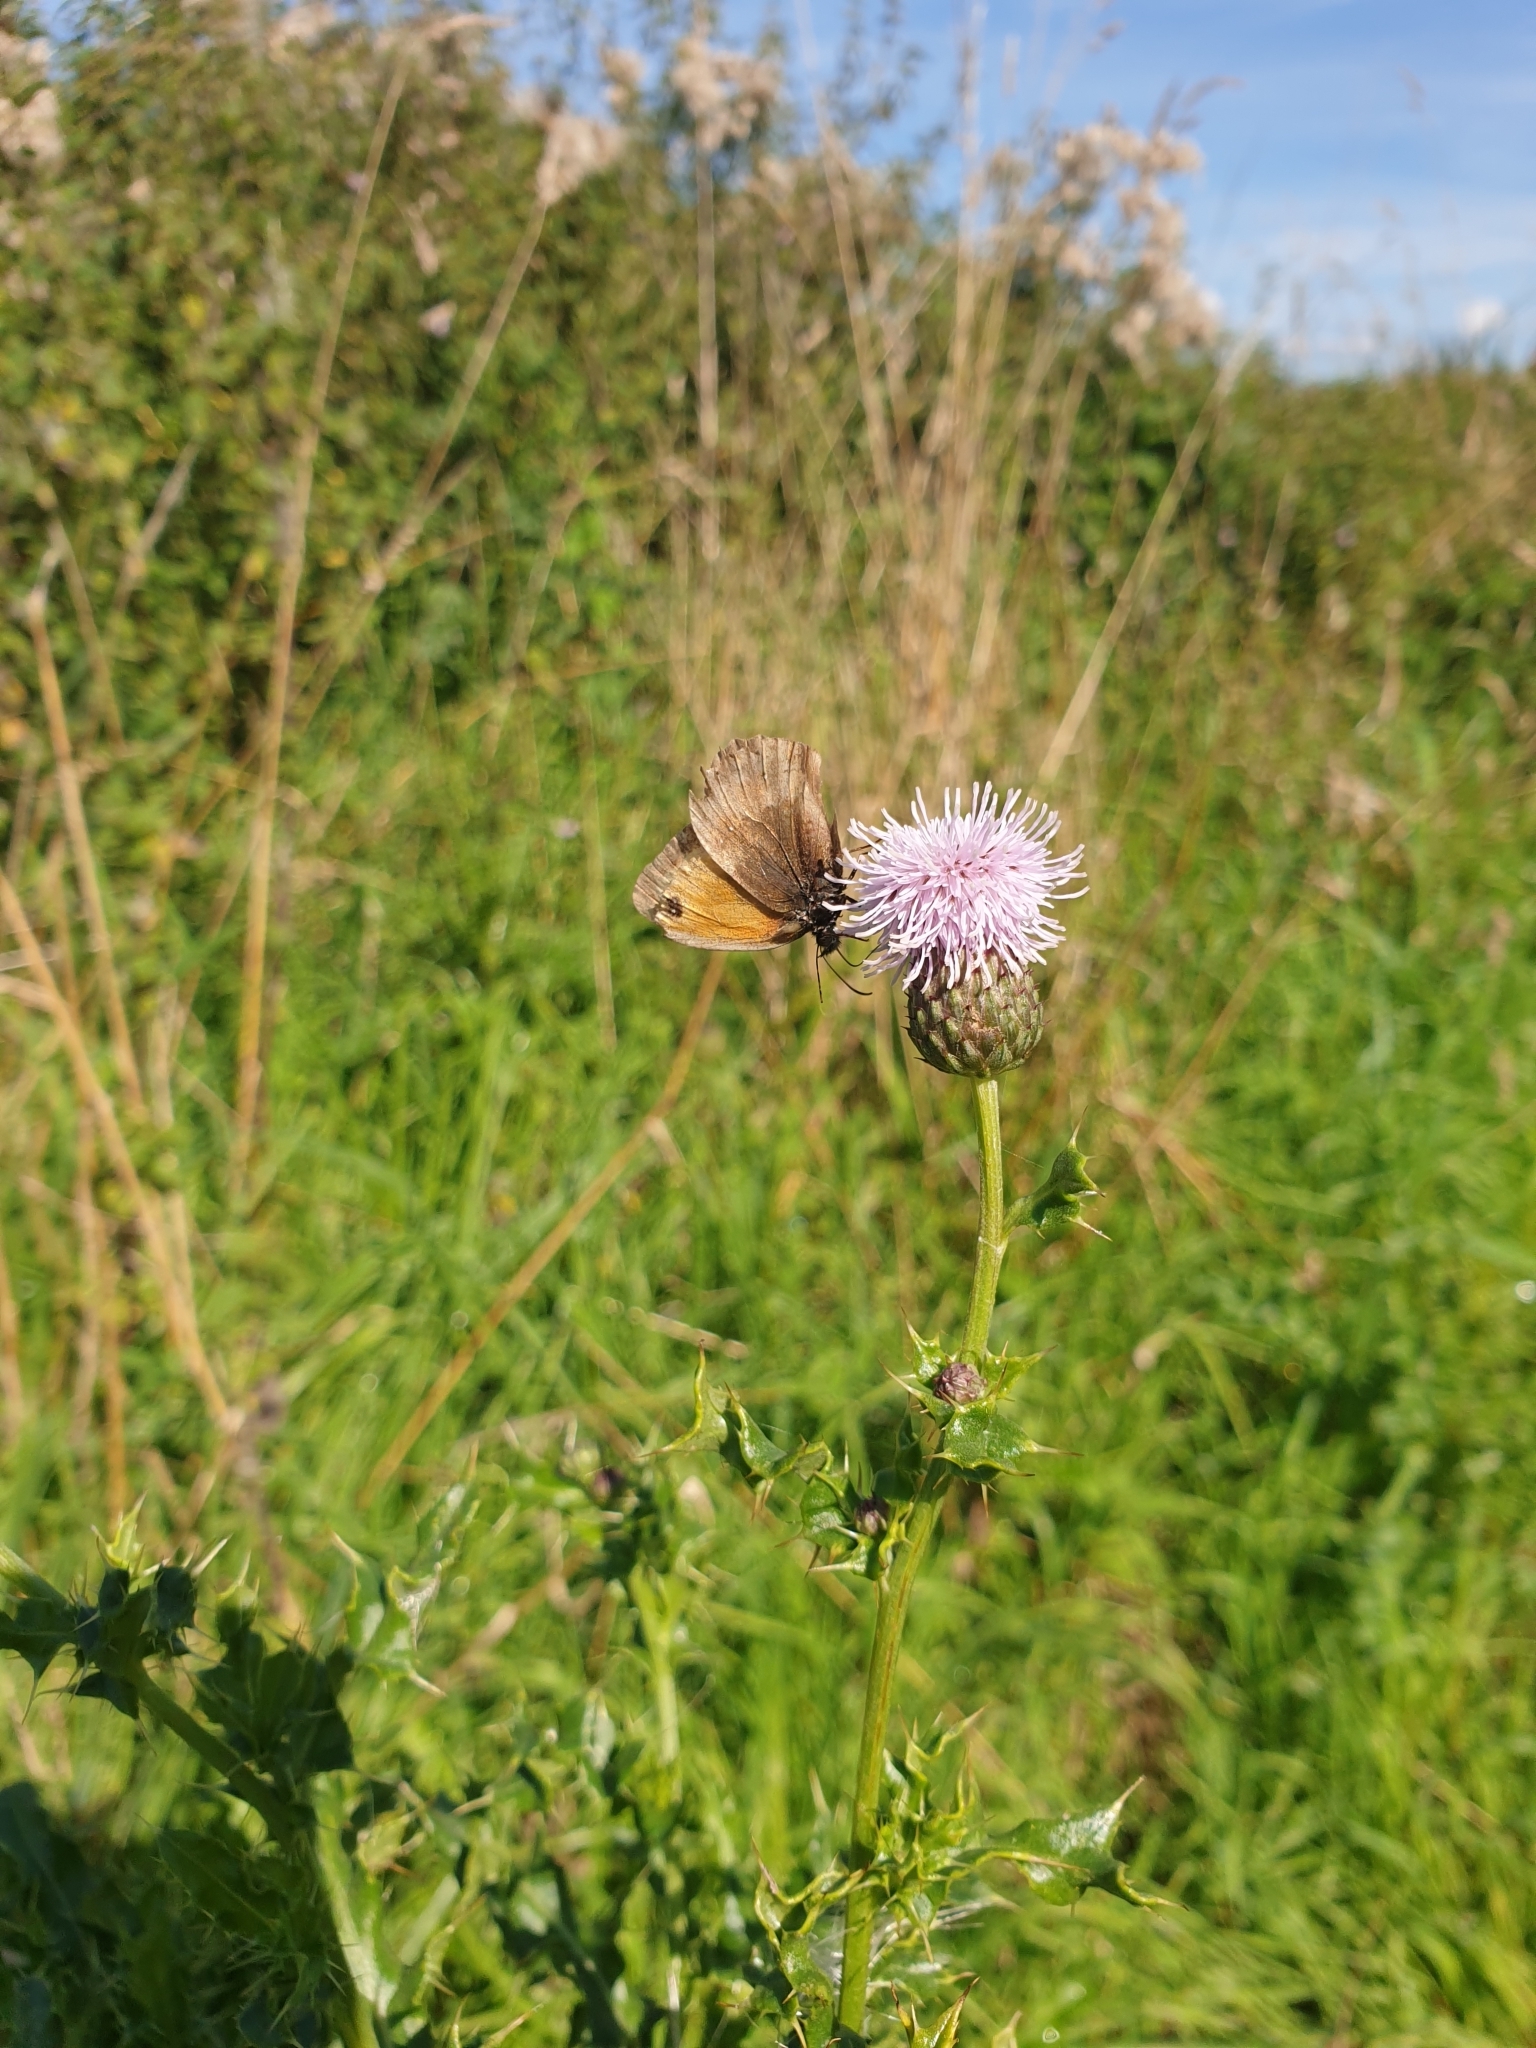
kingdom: Animalia
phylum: Arthropoda
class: Insecta
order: Lepidoptera
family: Nymphalidae
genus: Pyronia
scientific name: Pyronia tithonus
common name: Gatekeeper
